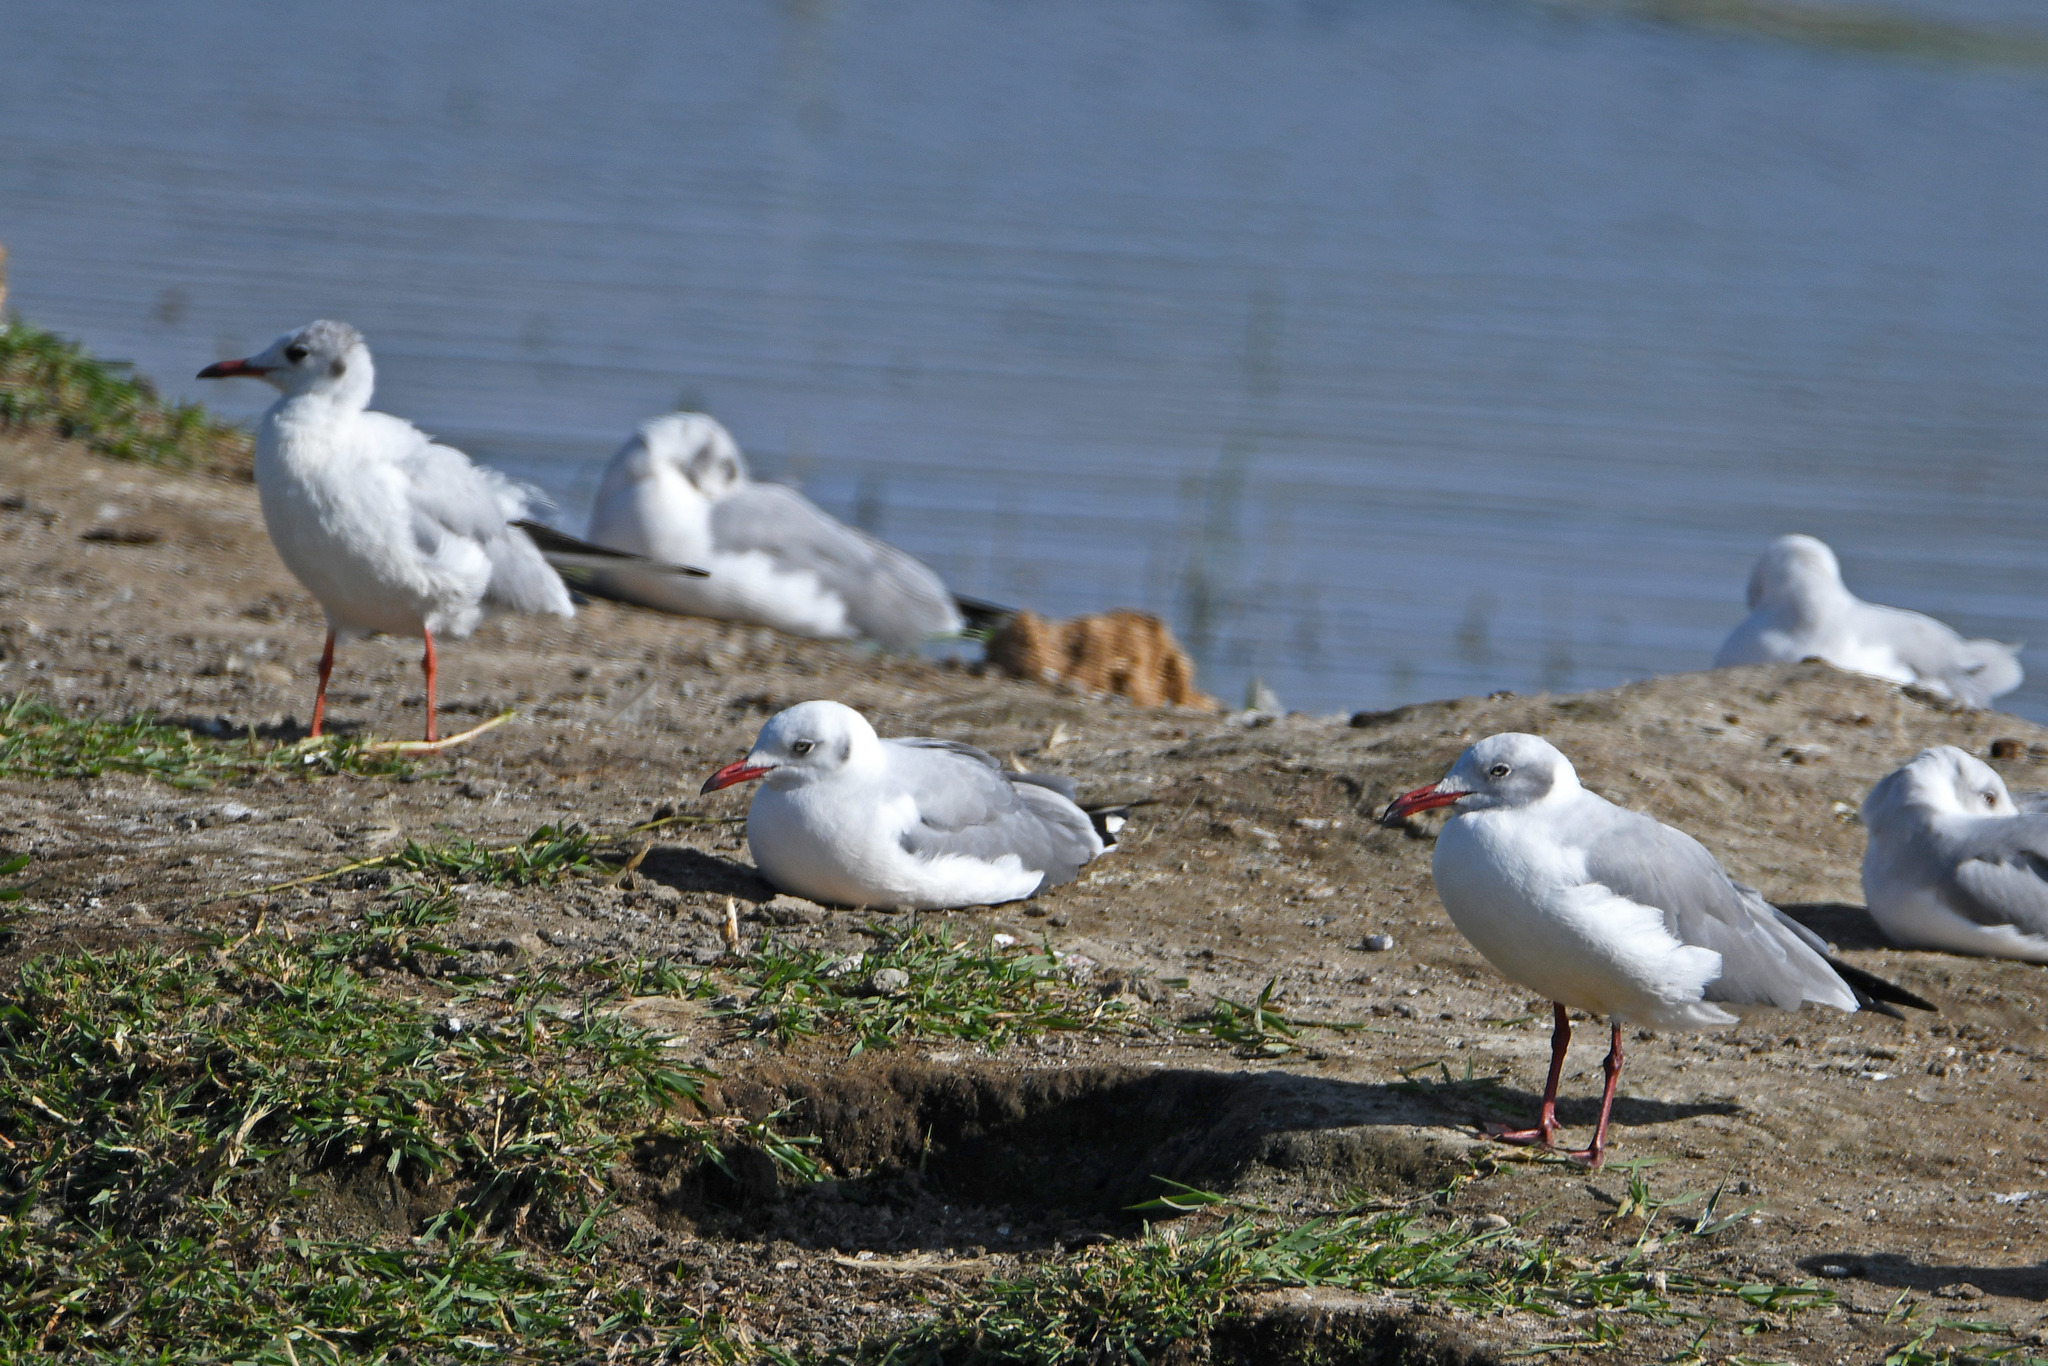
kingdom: Animalia
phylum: Chordata
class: Aves
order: Charadriiformes
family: Laridae
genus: Chroicocephalus
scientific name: Chroicocephalus cirrocephalus
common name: Grey-headed gull
